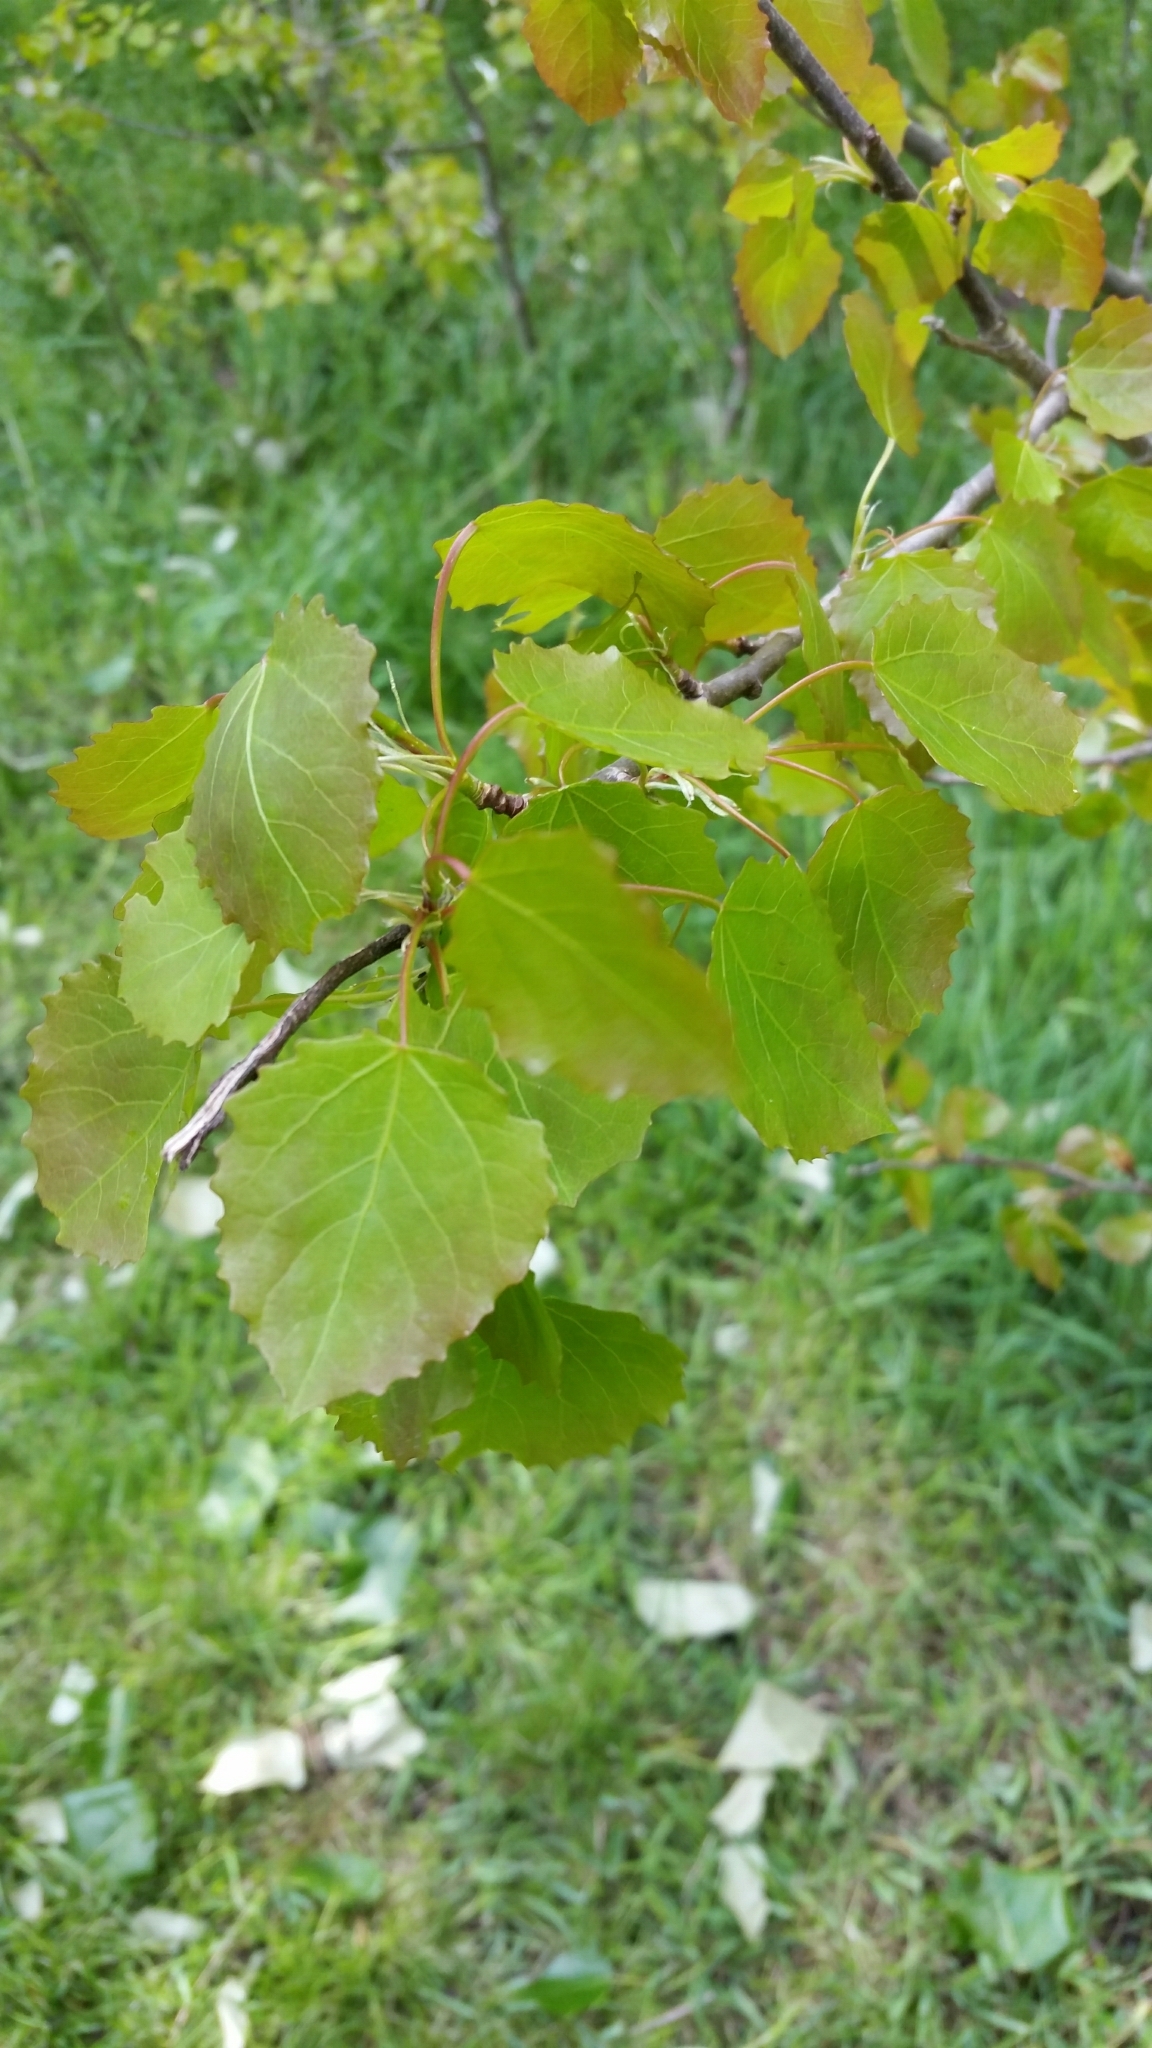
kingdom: Plantae
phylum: Tracheophyta
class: Magnoliopsida
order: Malpighiales
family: Salicaceae
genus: Populus
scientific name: Populus tremula
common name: European aspen
